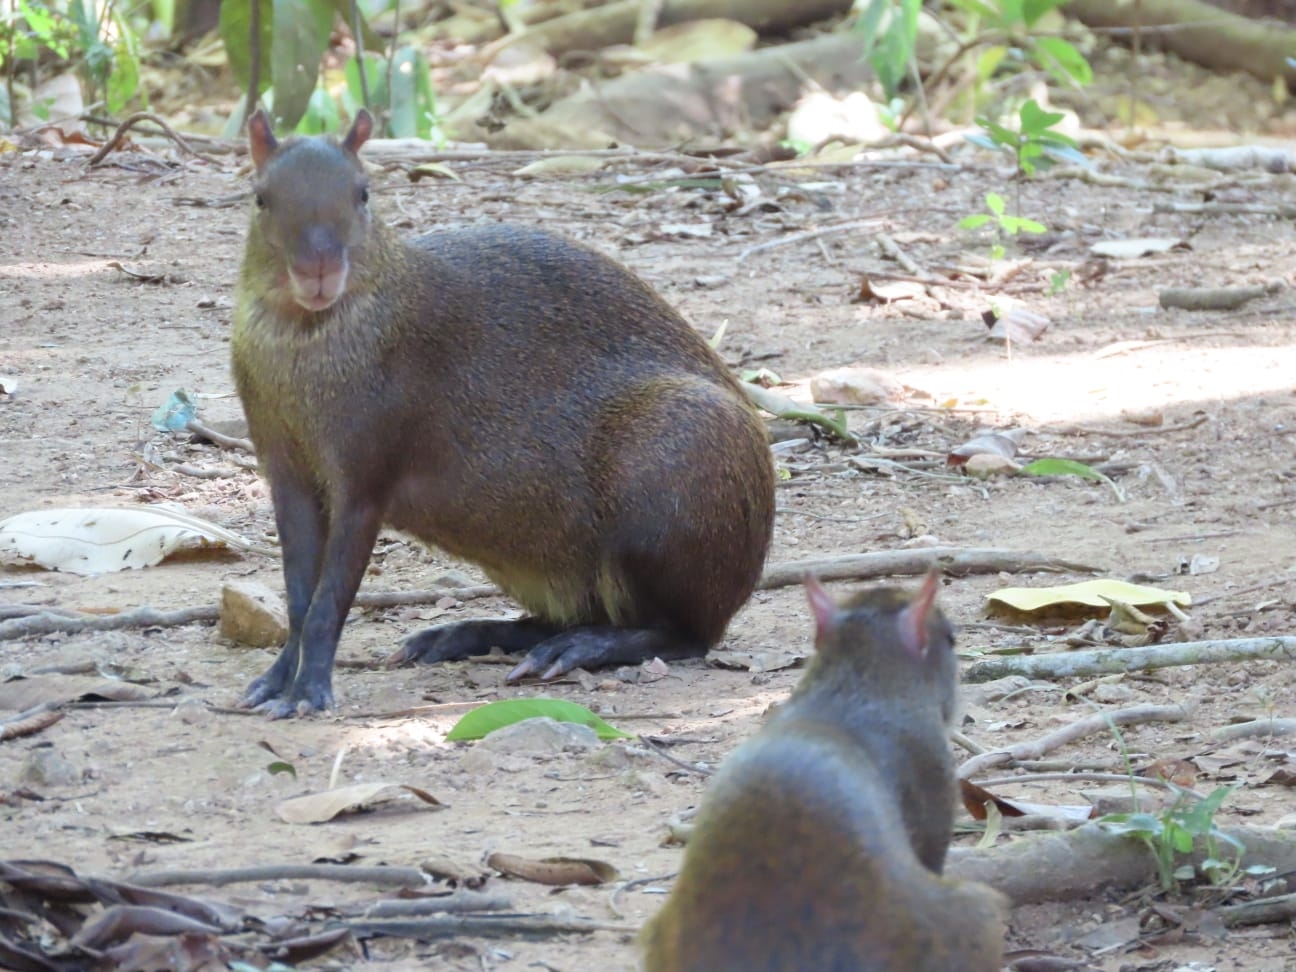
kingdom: Animalia
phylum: Chordata
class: Mammalia
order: Rodentia
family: Dasyproctidae
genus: Dasyprocta
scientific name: Dasyprocta punctata
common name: Central american agouti
